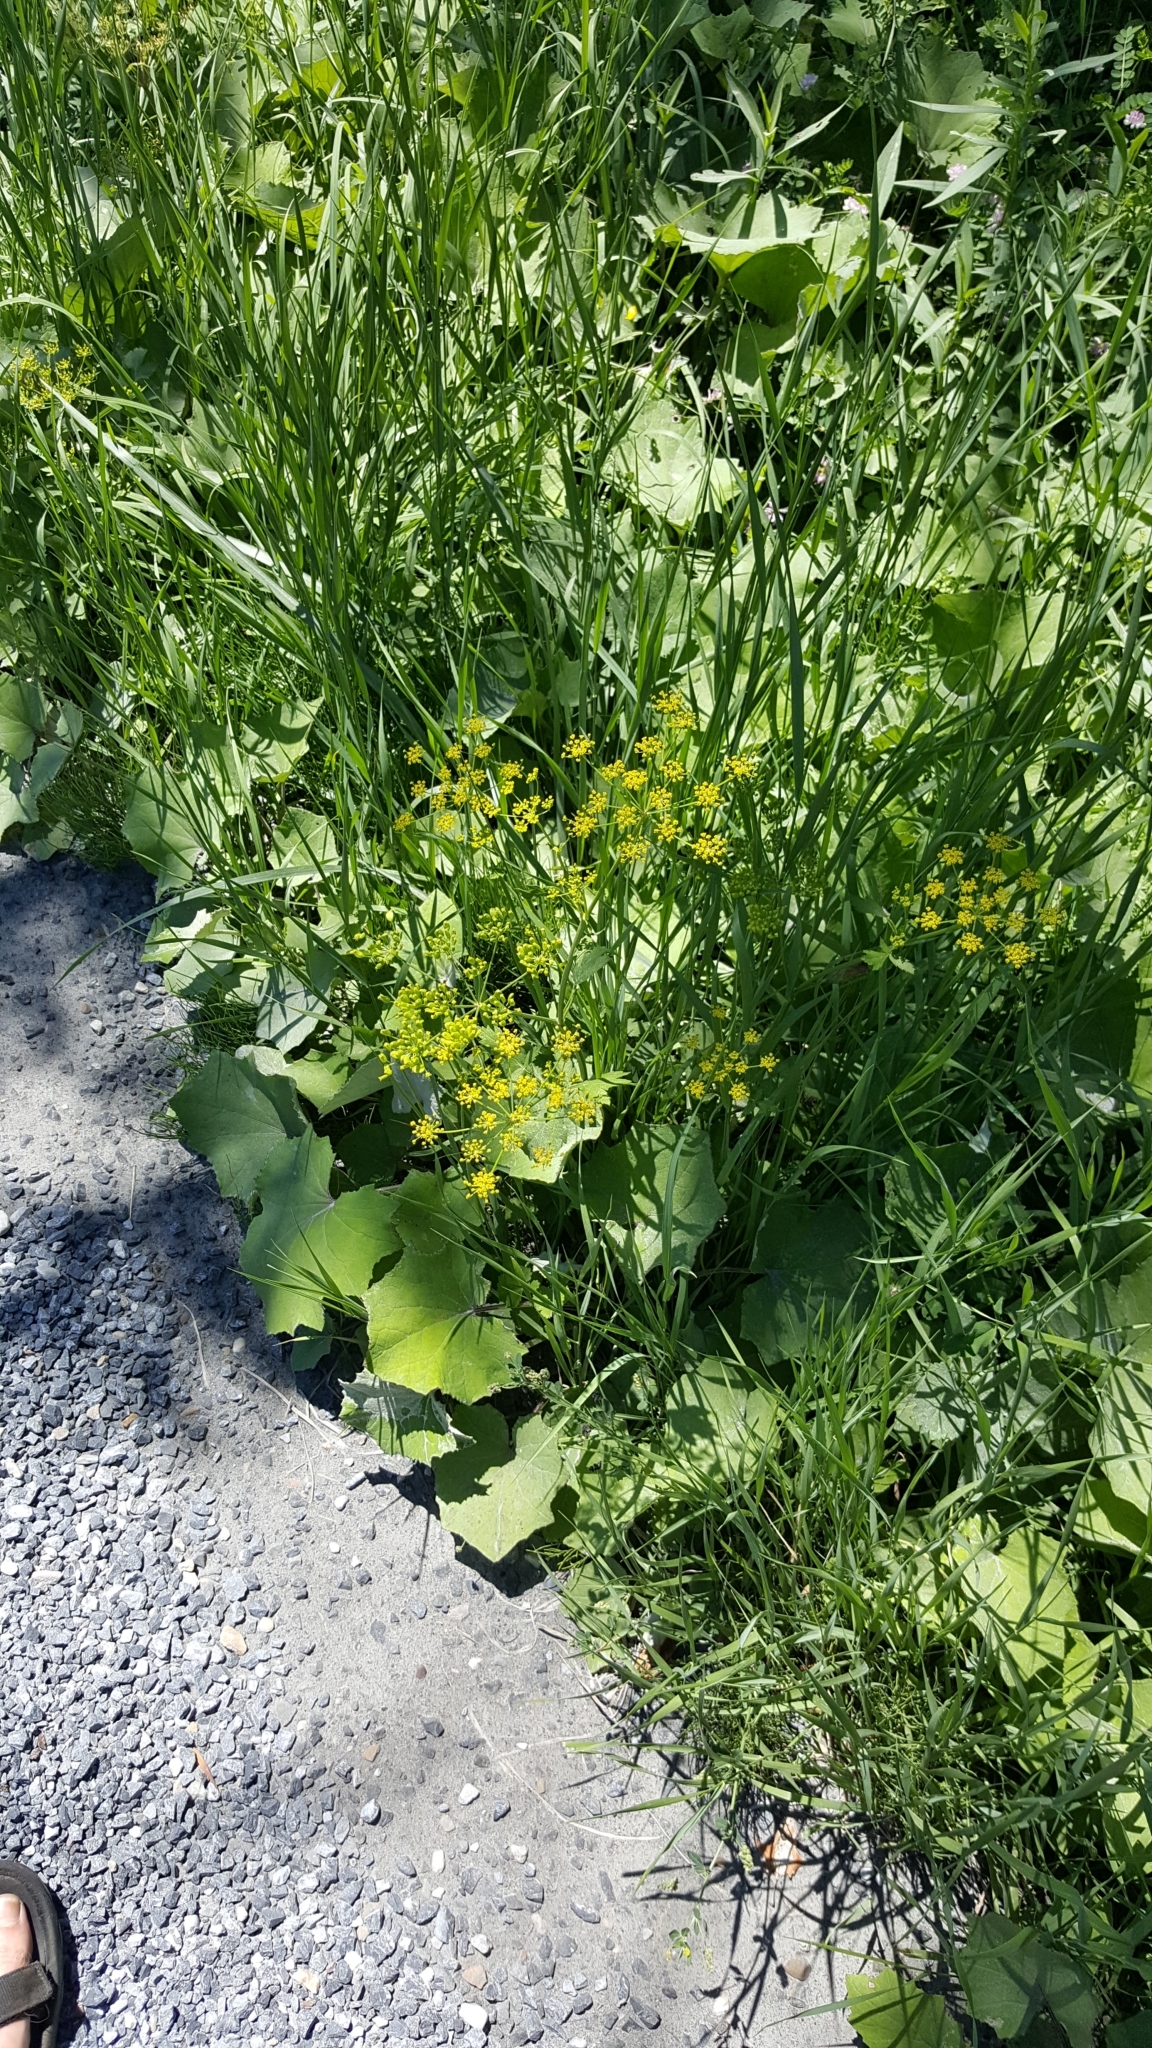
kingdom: Plantae
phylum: Tracheophyta
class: Magnoliopsida
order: Apiales
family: Apiaceae
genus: Pastinaca
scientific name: Pastinaca sativa
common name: Wild parsnip
